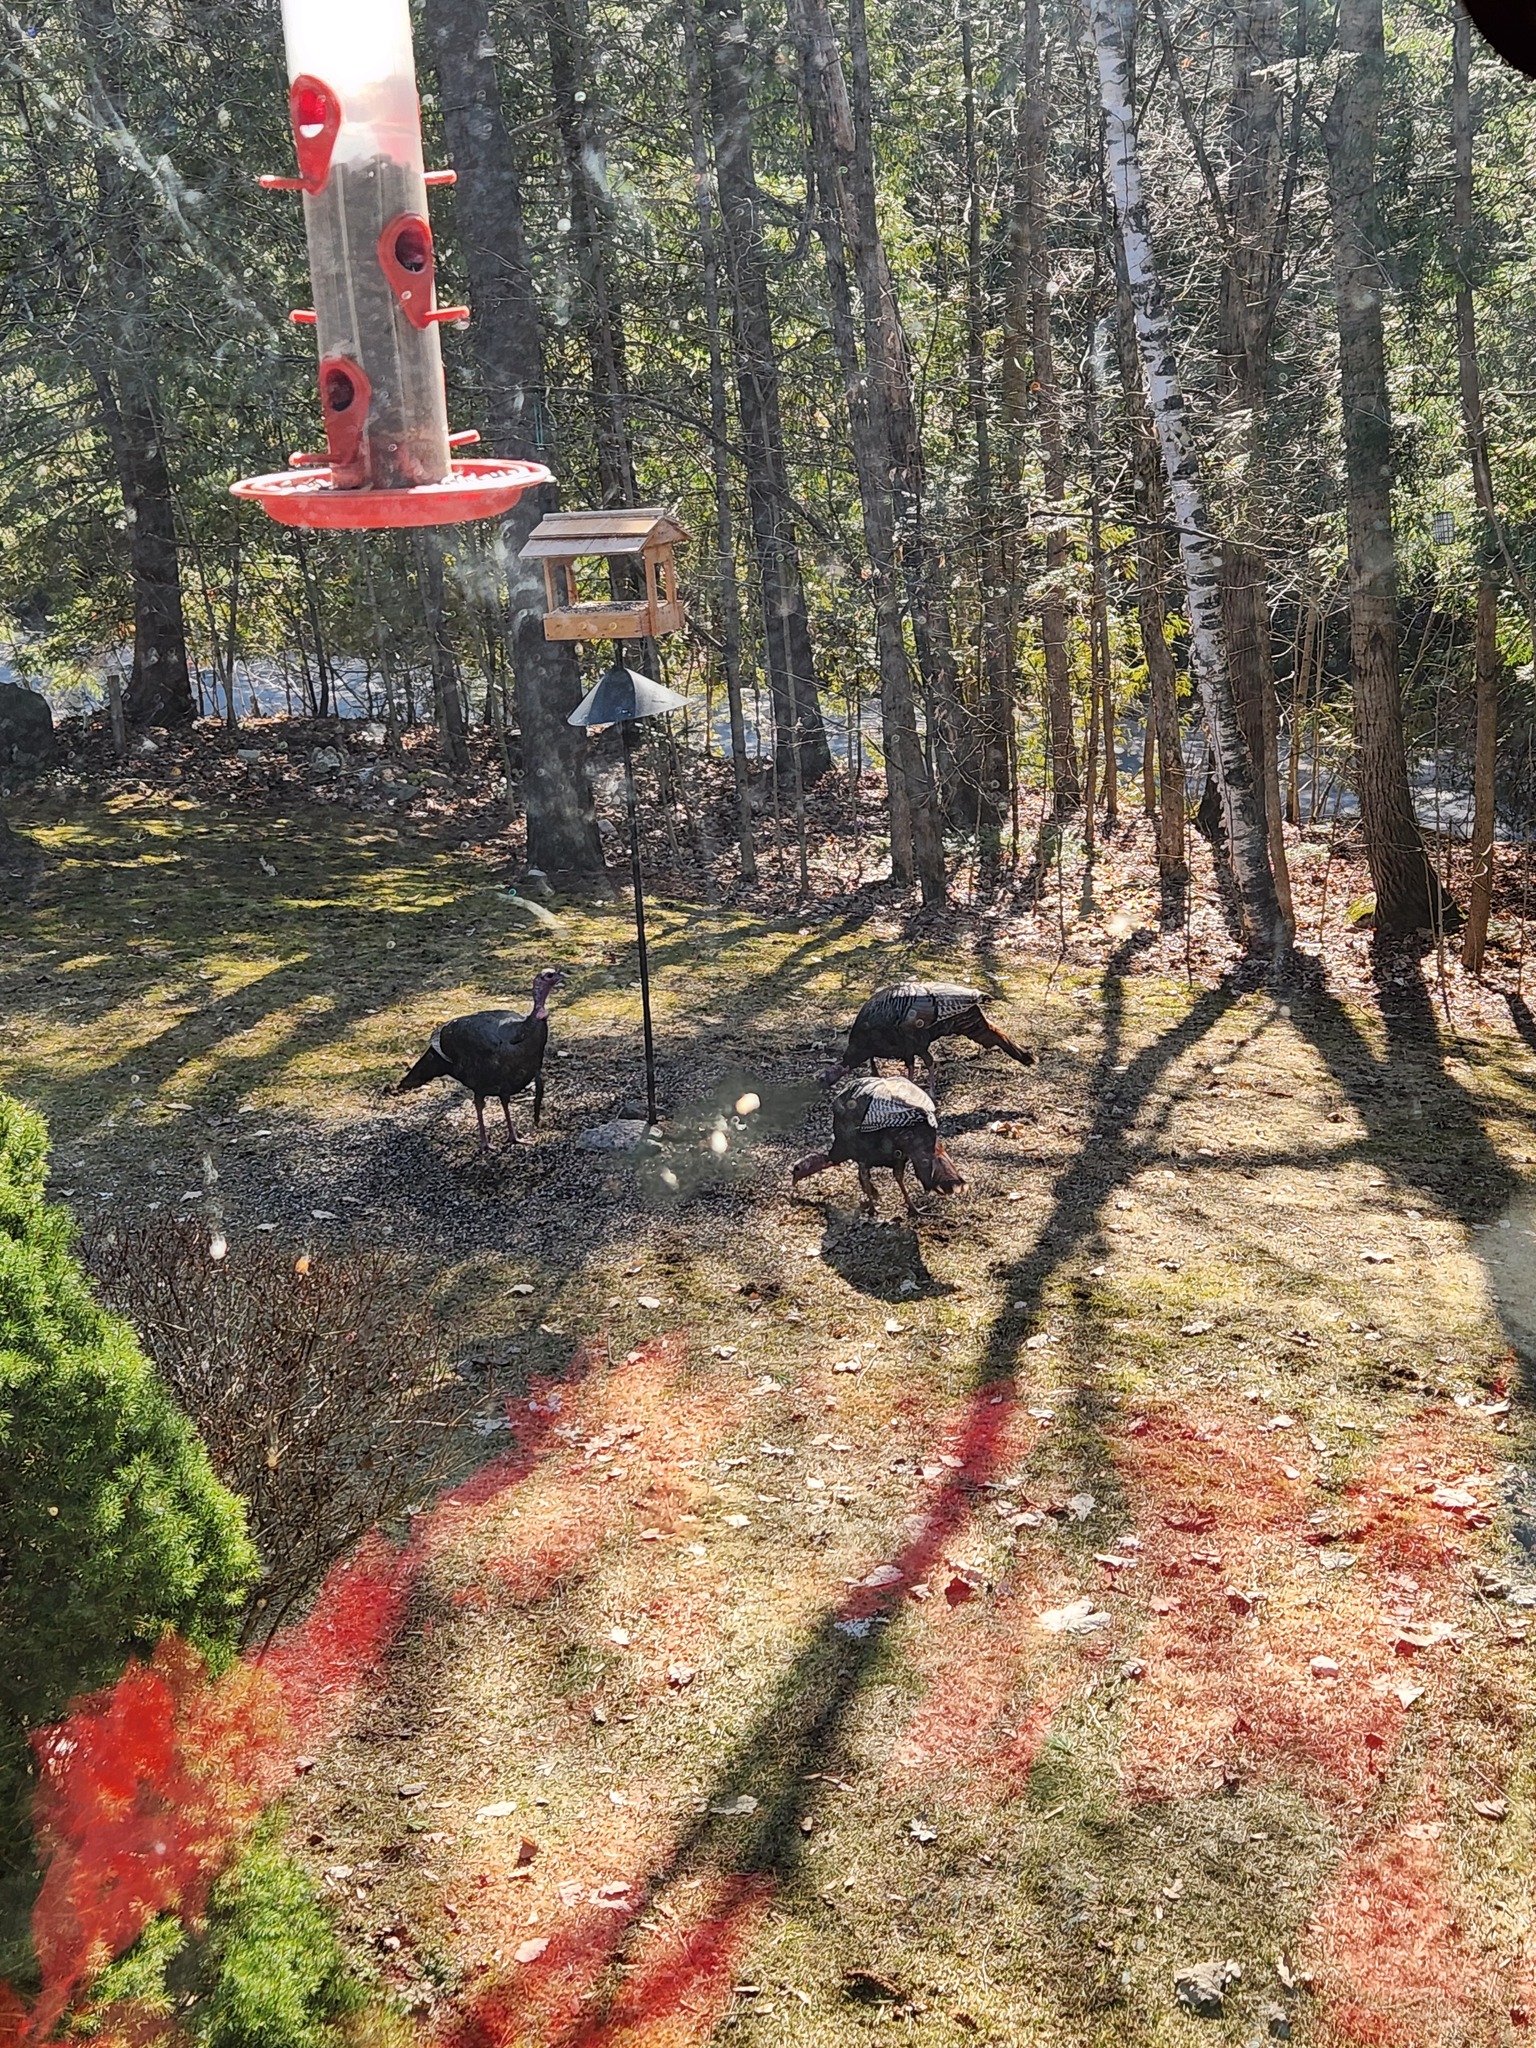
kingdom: Animalia
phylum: Chordata
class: Aves
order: Galliformes
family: Phasianidae
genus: Meleagris
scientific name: Meleagris gallopavo
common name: Wild turkey
